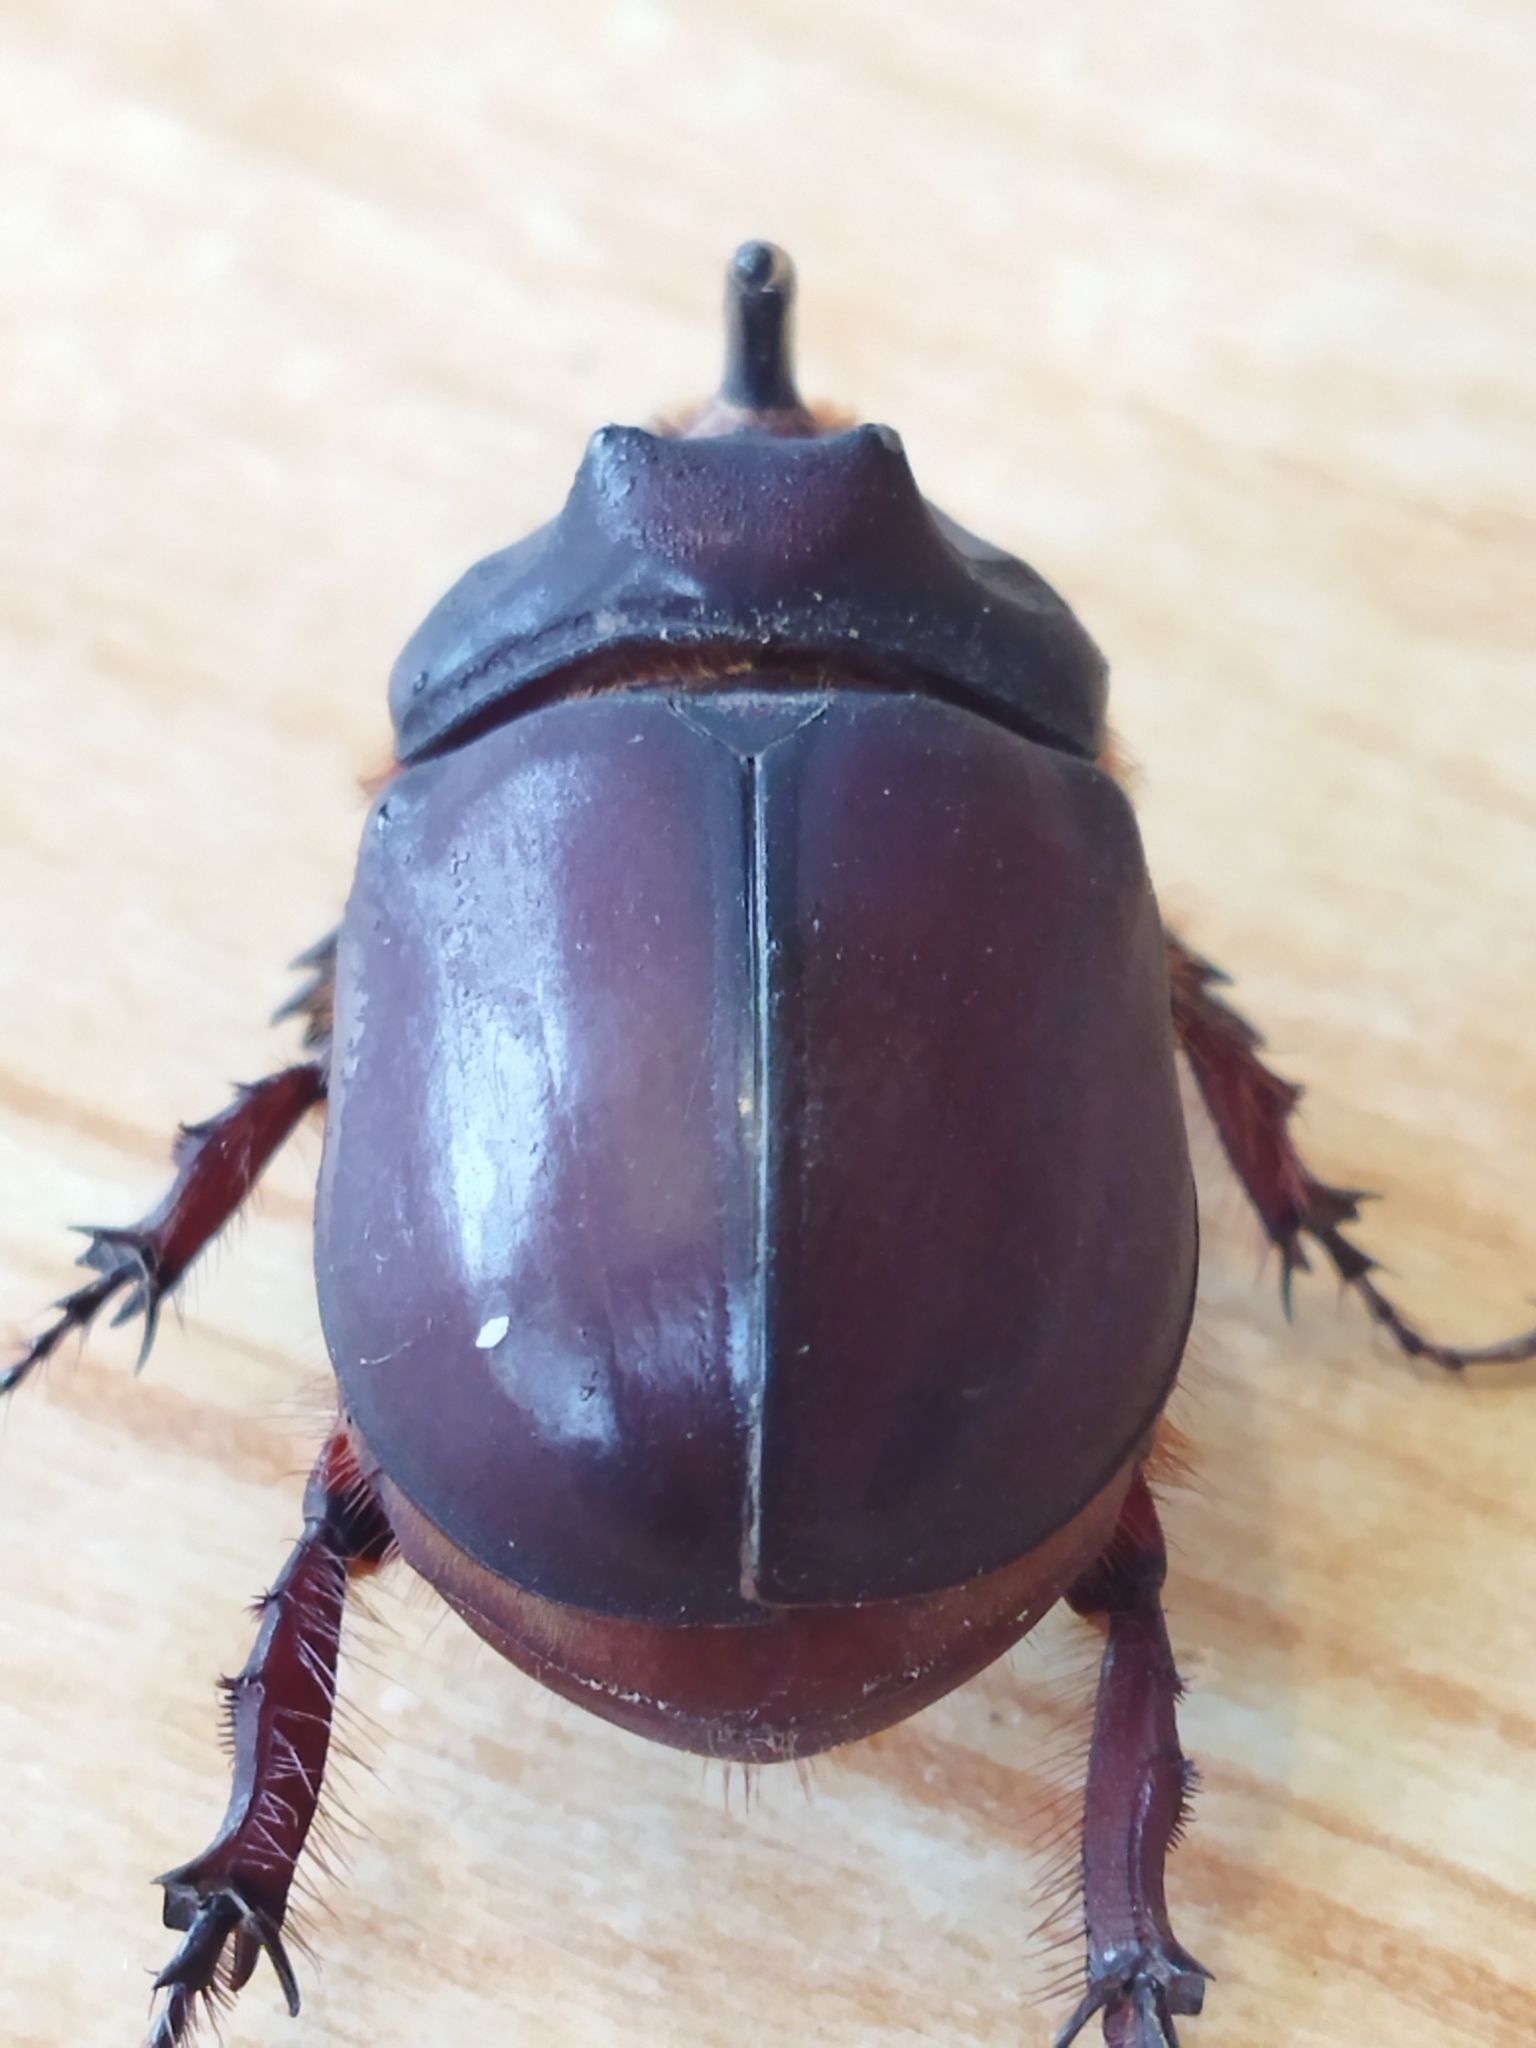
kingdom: Animalia
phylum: Arthropoda
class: Insecta
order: Coleoptera
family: Scarabaeidae
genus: Oryctes
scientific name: Oryctes nasicornis
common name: European rhinoceros beetle
